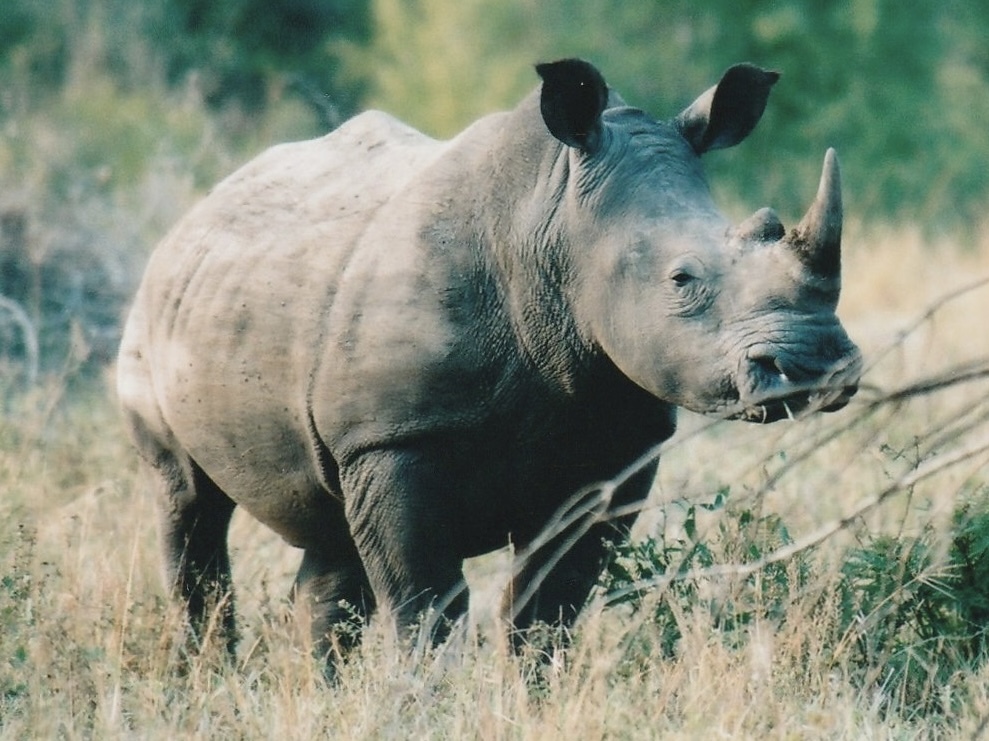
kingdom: Animalia
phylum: Chordata
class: Mammalia
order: Perissodactyla
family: Rhinocerotidae
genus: Ceratotherium
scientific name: Ceratotherium simum
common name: White rhinoceros
